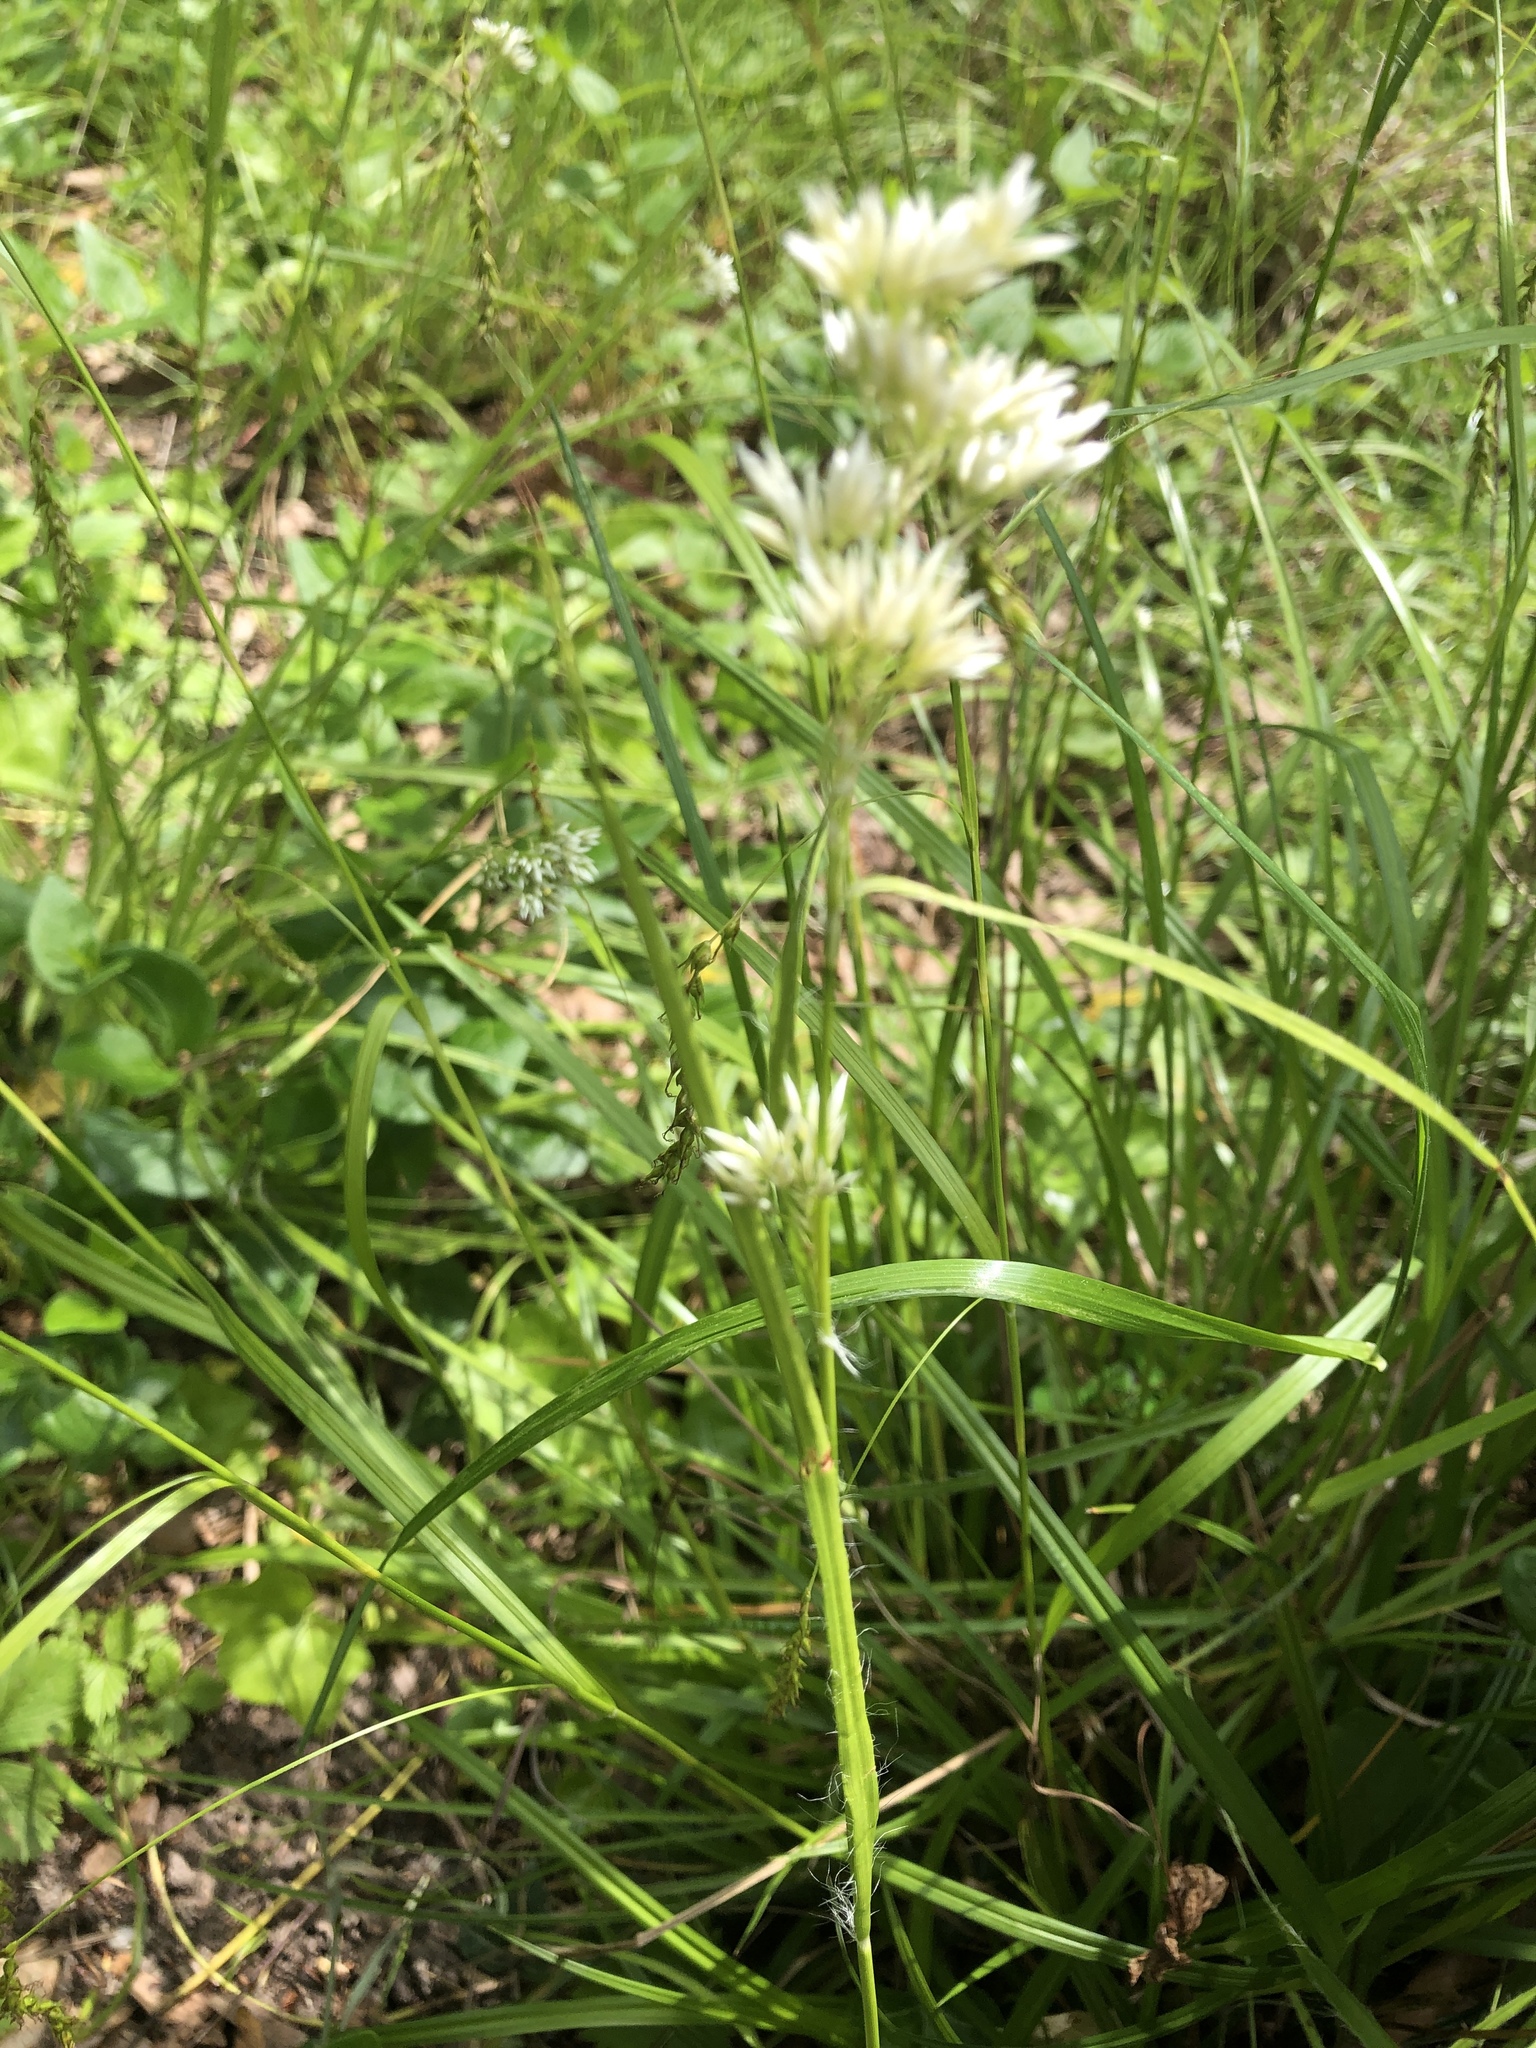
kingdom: Plantae
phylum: Tracheophyta
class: Liliopsida
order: Poales
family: Juncaceae
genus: Luzula
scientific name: Luzula nivea
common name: Snow-white wood-rush
